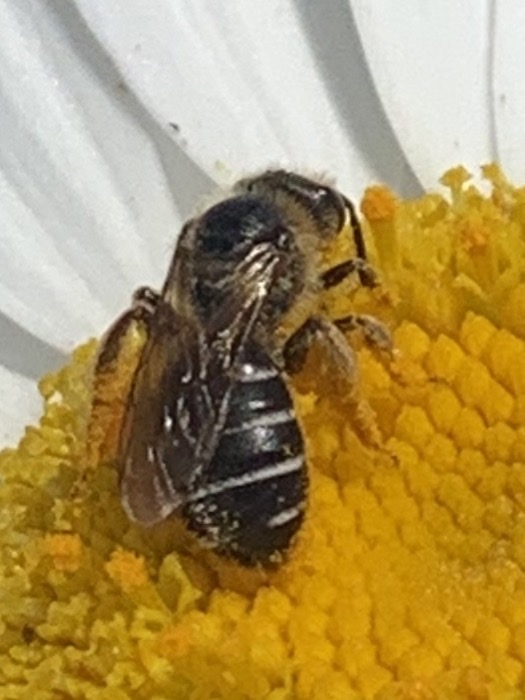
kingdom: Animalia
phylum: Arthropoda
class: Insecta
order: Hymenoptera
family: Halictidae
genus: Halictus
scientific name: Halictus rubicundus
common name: Orange-legged furrow bee
